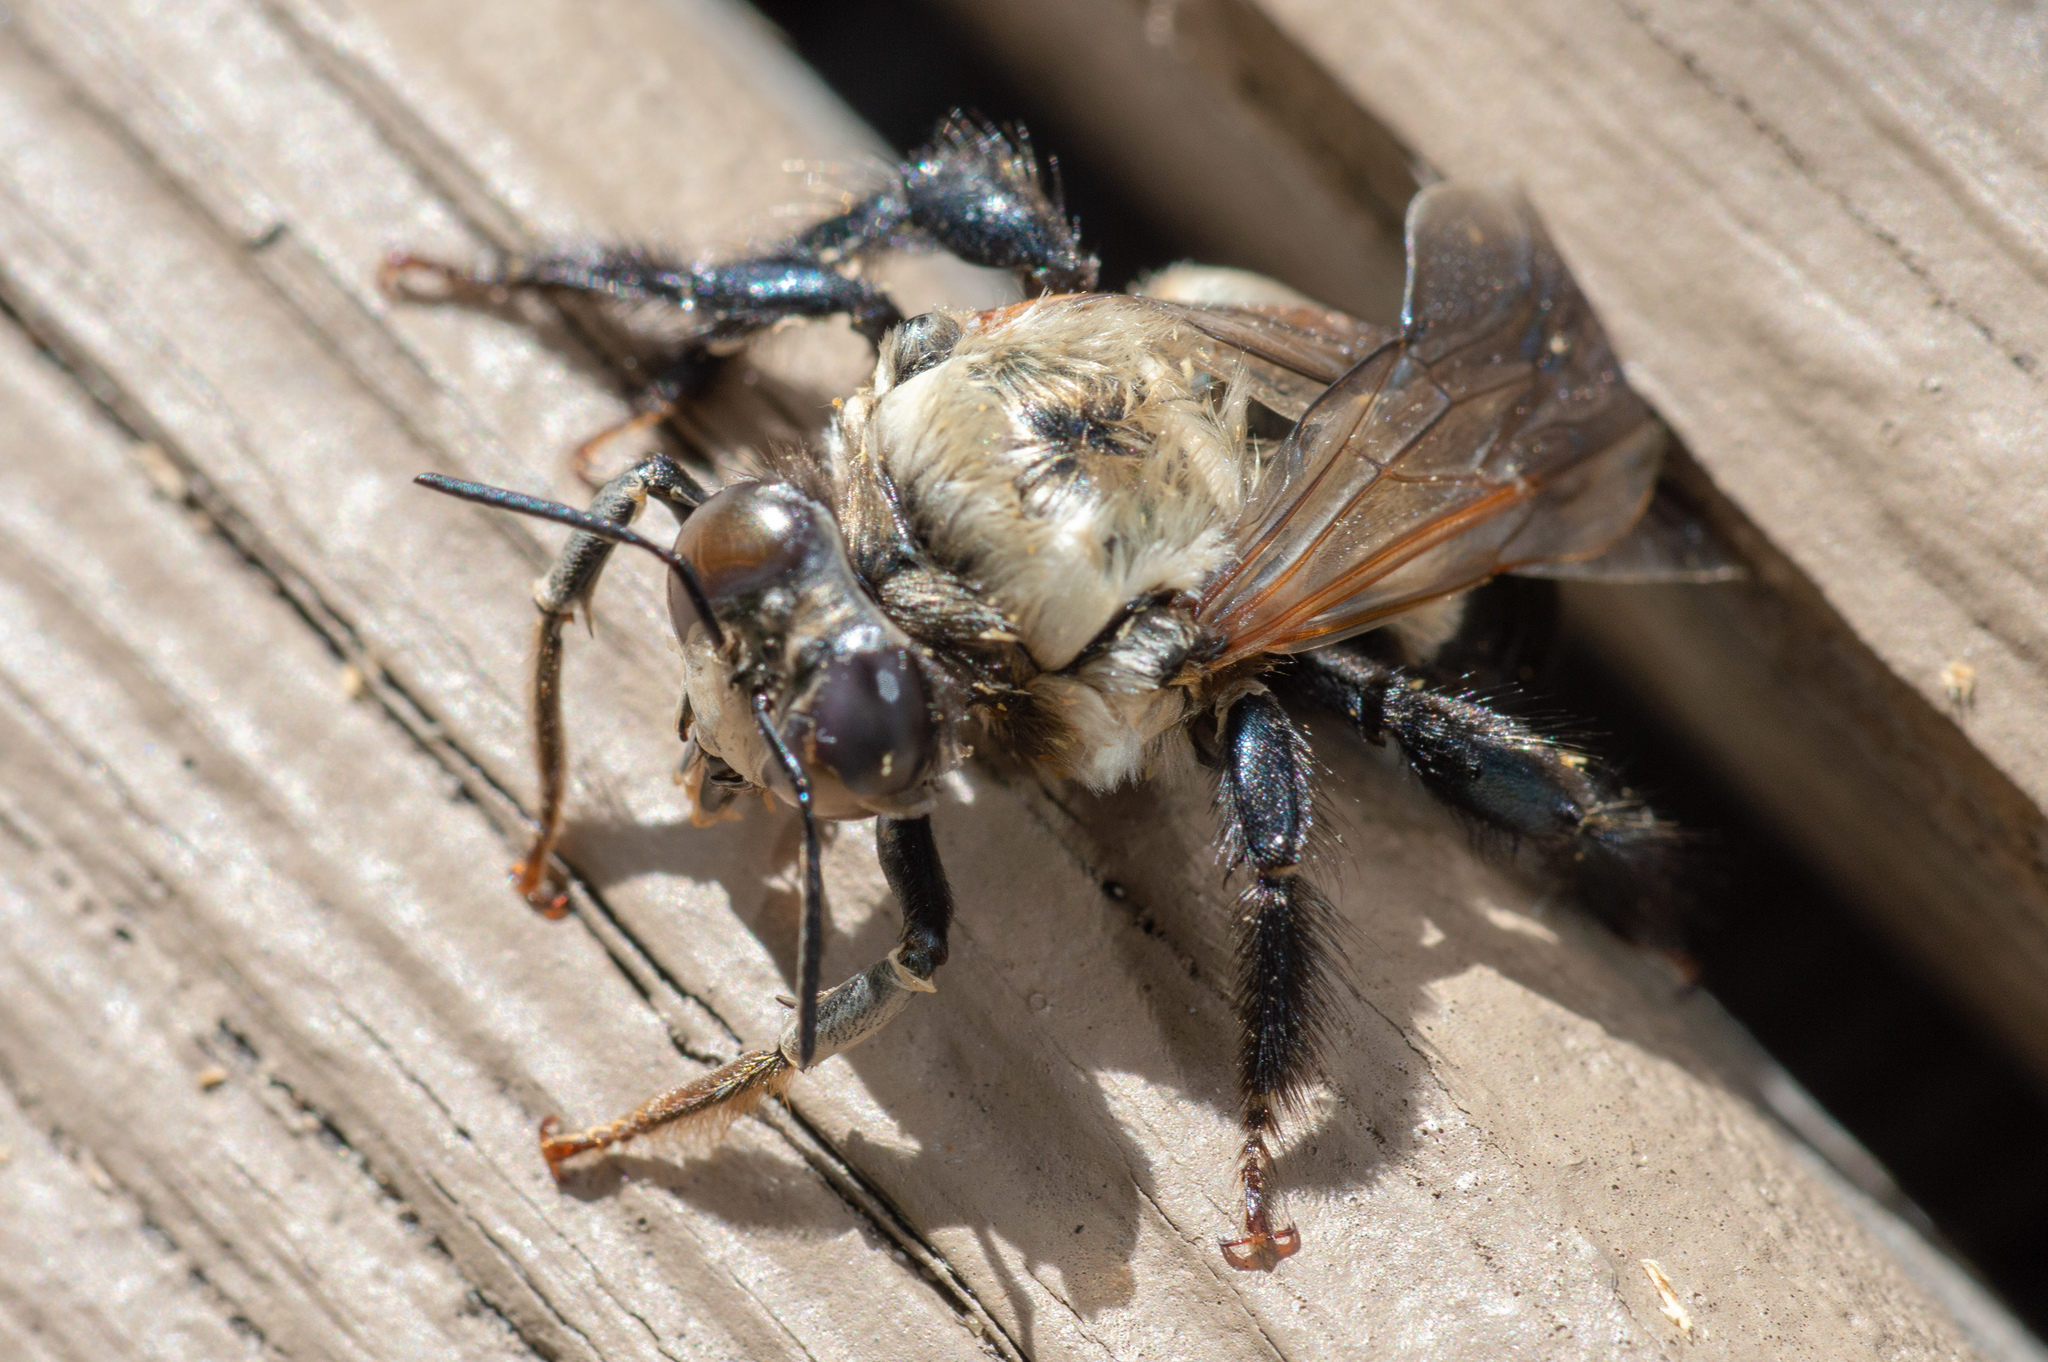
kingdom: Animalia
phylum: Arthropoda
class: Insecta
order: Hymenoptera
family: Apidae
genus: Xylocopa
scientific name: Xylocopa virginica
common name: Carpenter bee
